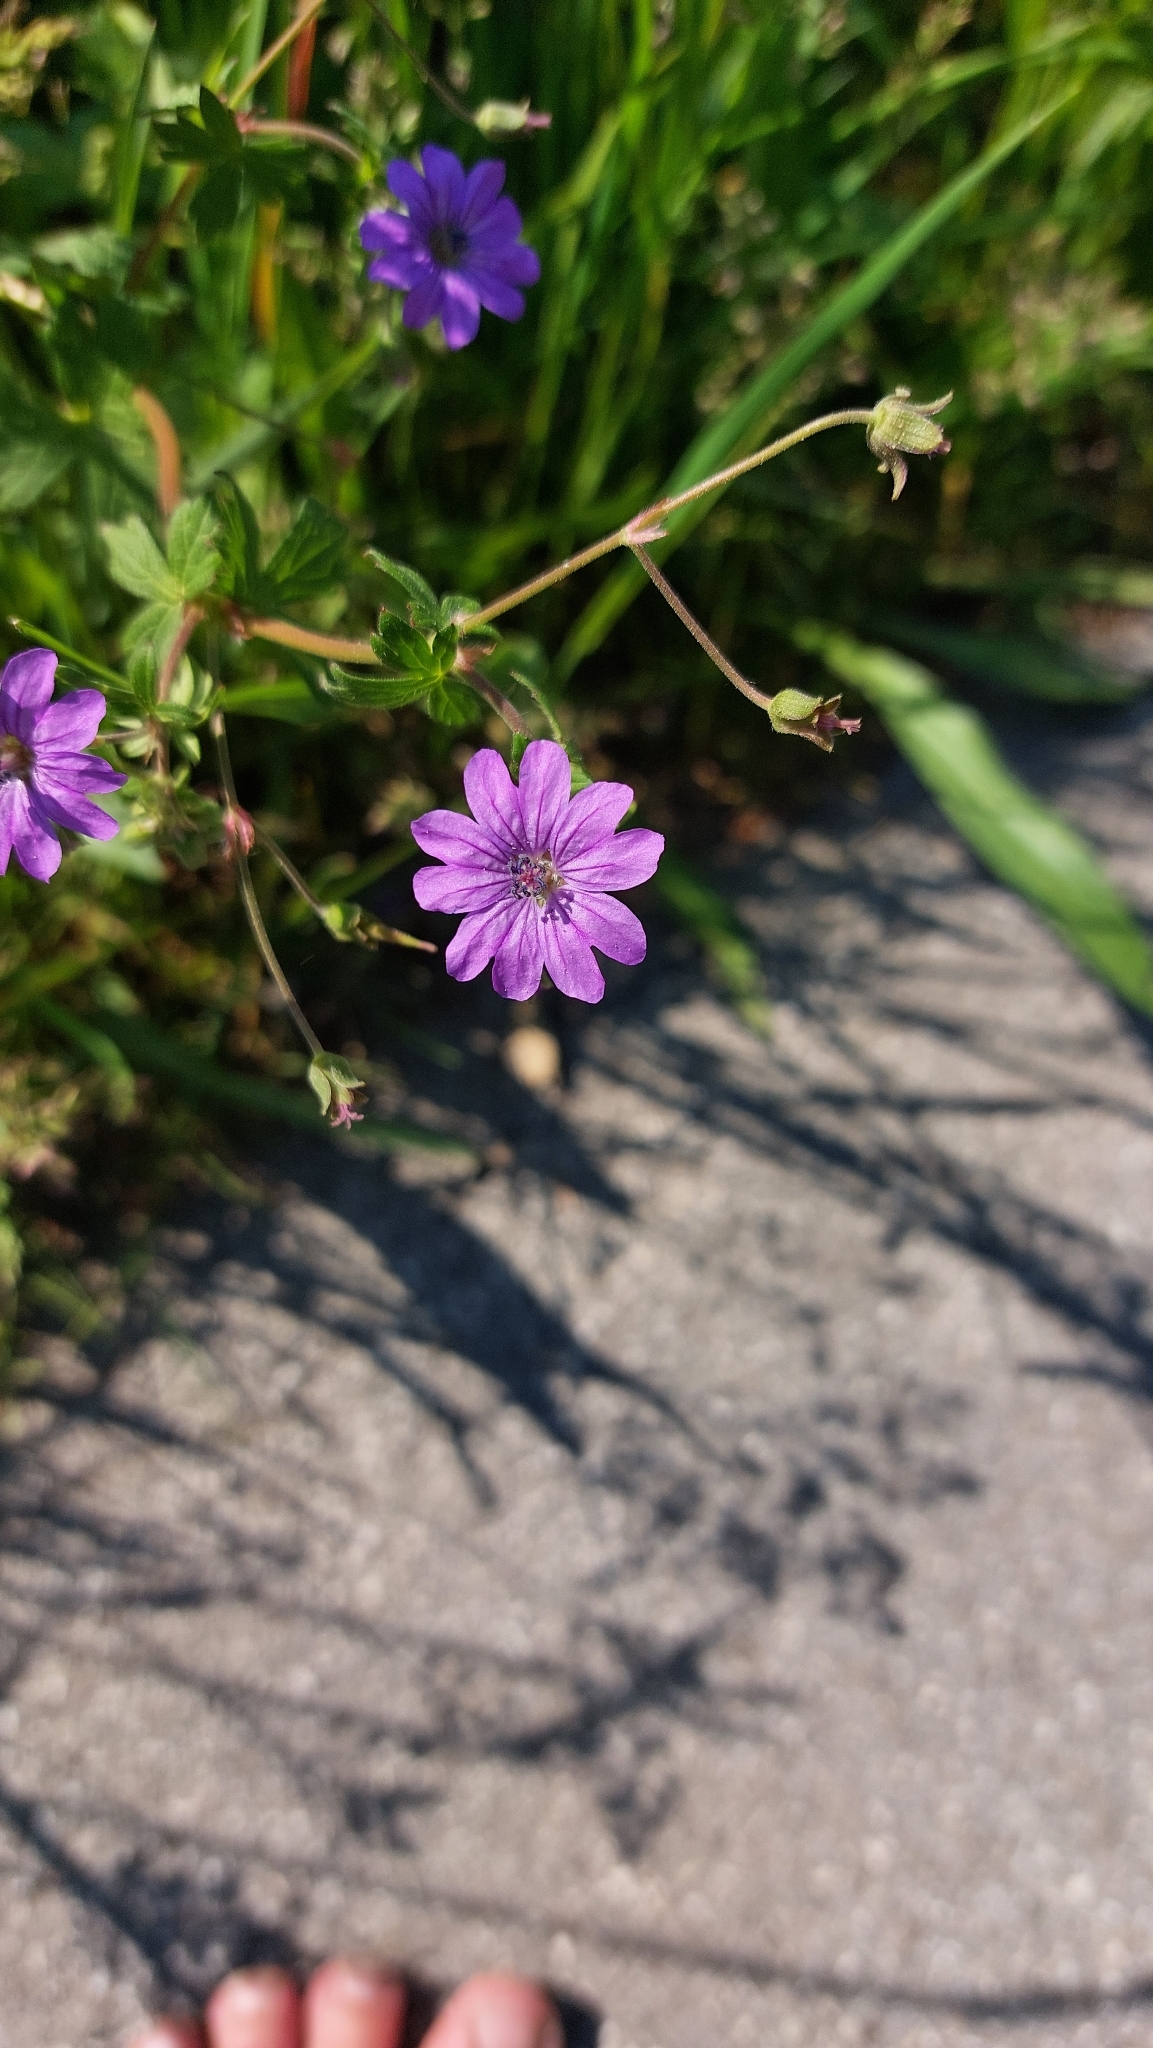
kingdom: Plantae
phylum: Tracheophyta
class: Magnoliopsida
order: Geraniales
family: Geraniaceae
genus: Geranium
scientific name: Geranium pyrenaicum
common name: Hedgerow crane's-bill
